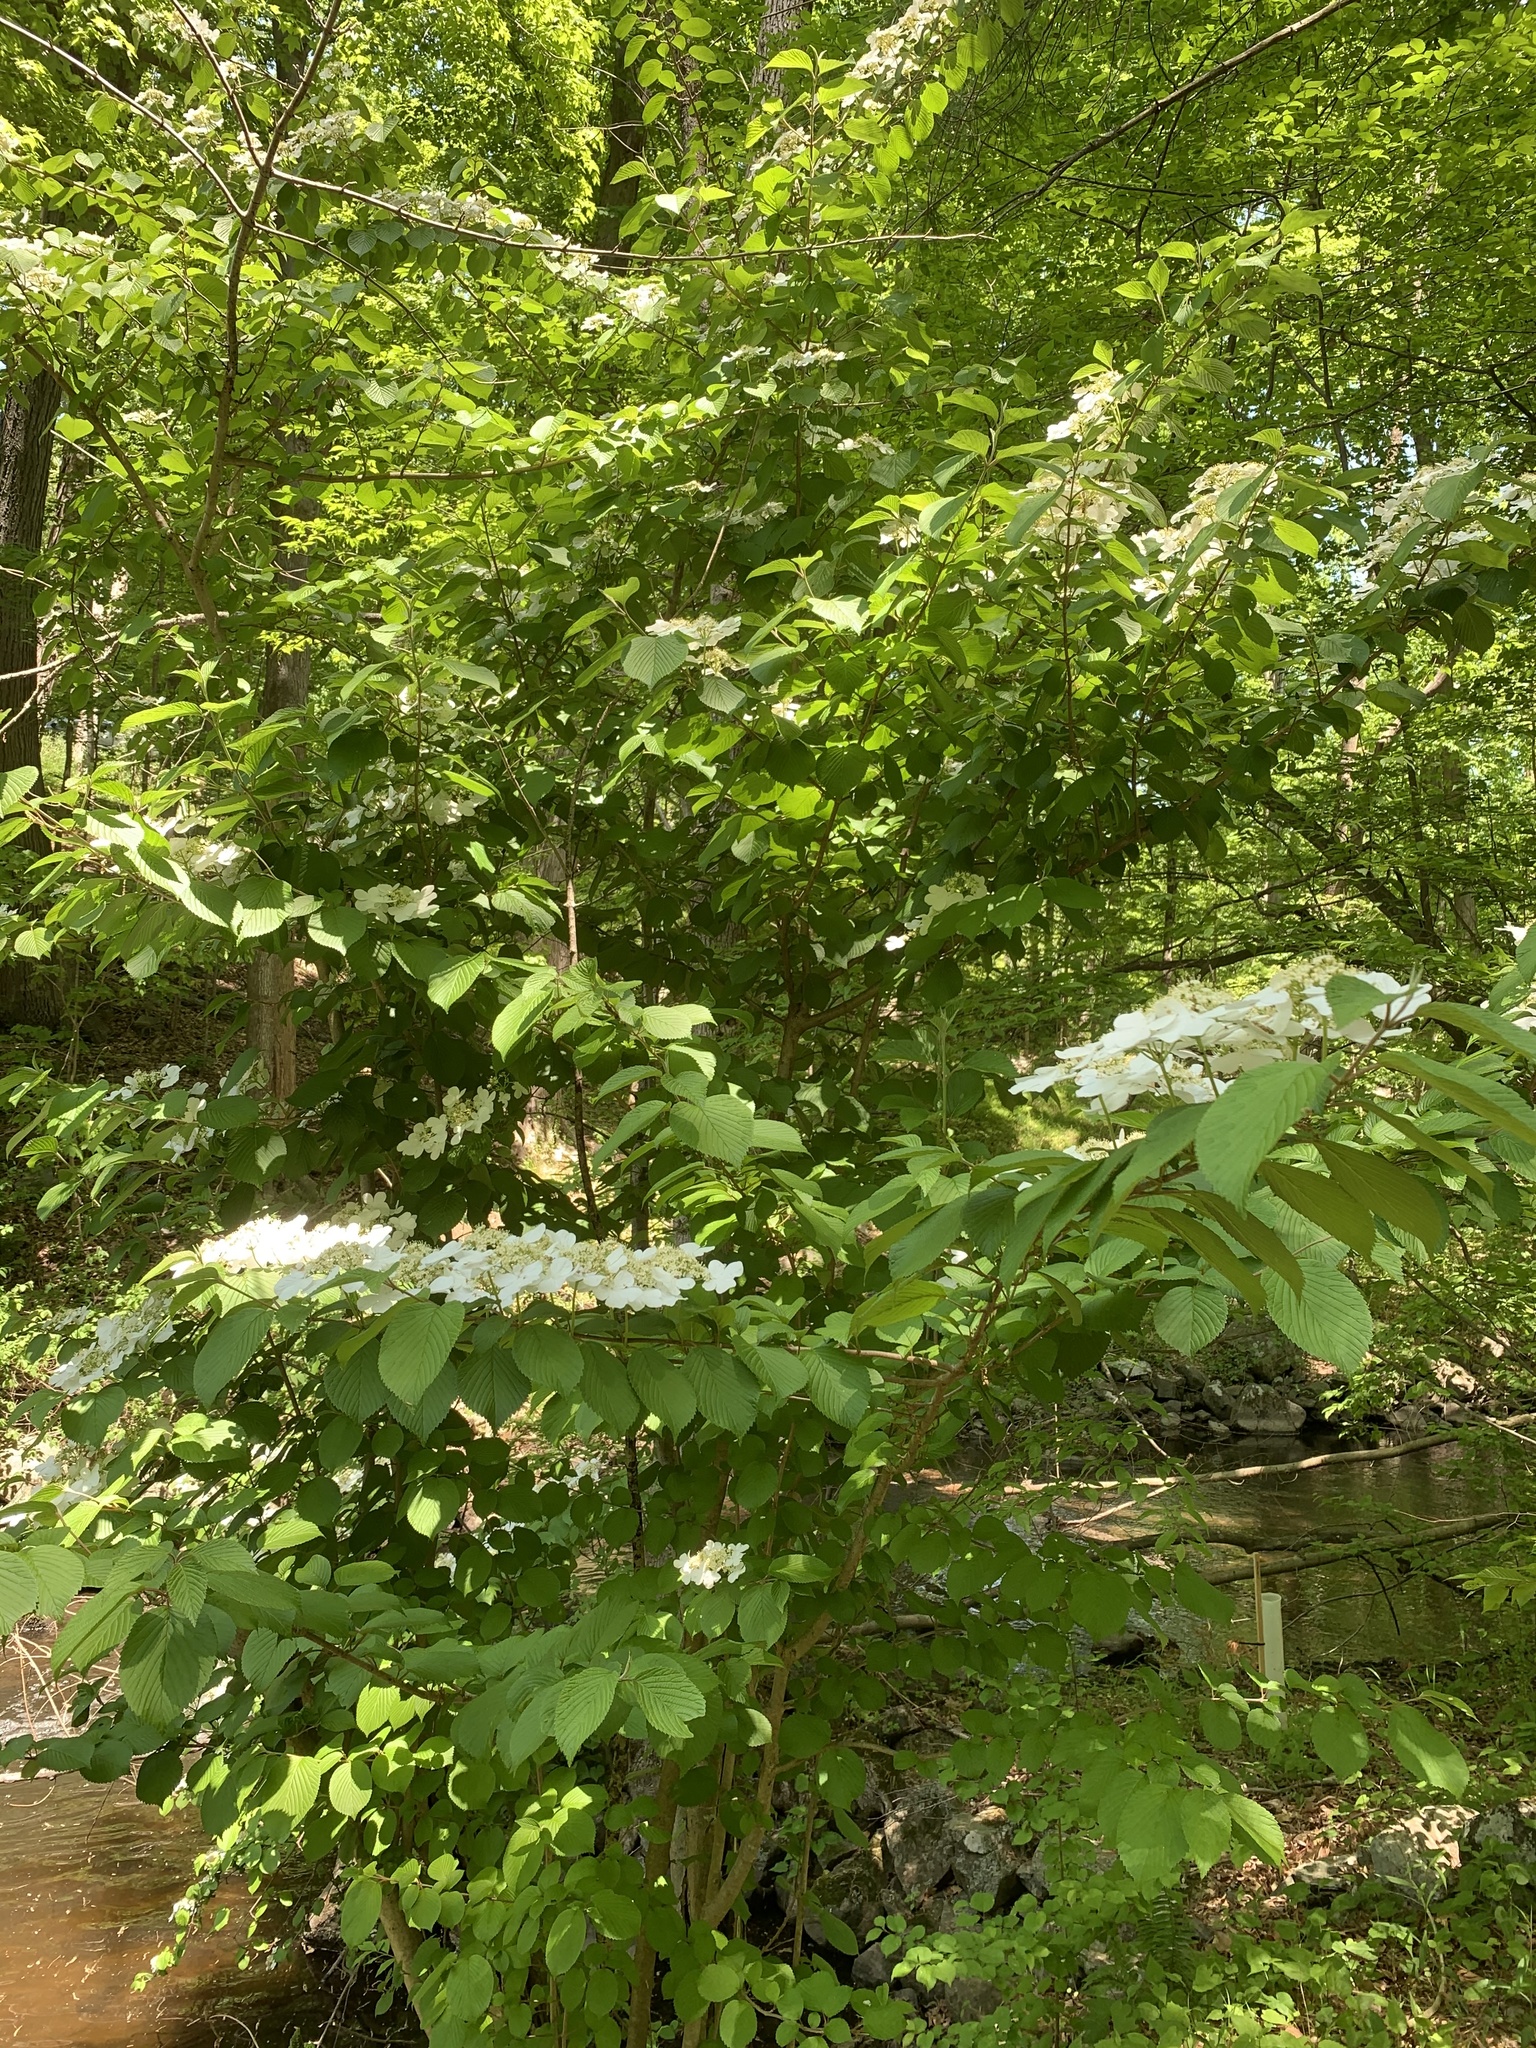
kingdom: Plantae
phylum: Tracheophyta
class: Magnoliopsida
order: Dipsacales
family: Viburnaceae
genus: Viburnum
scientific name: Viburnum plicatum
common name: Japanese snowball
